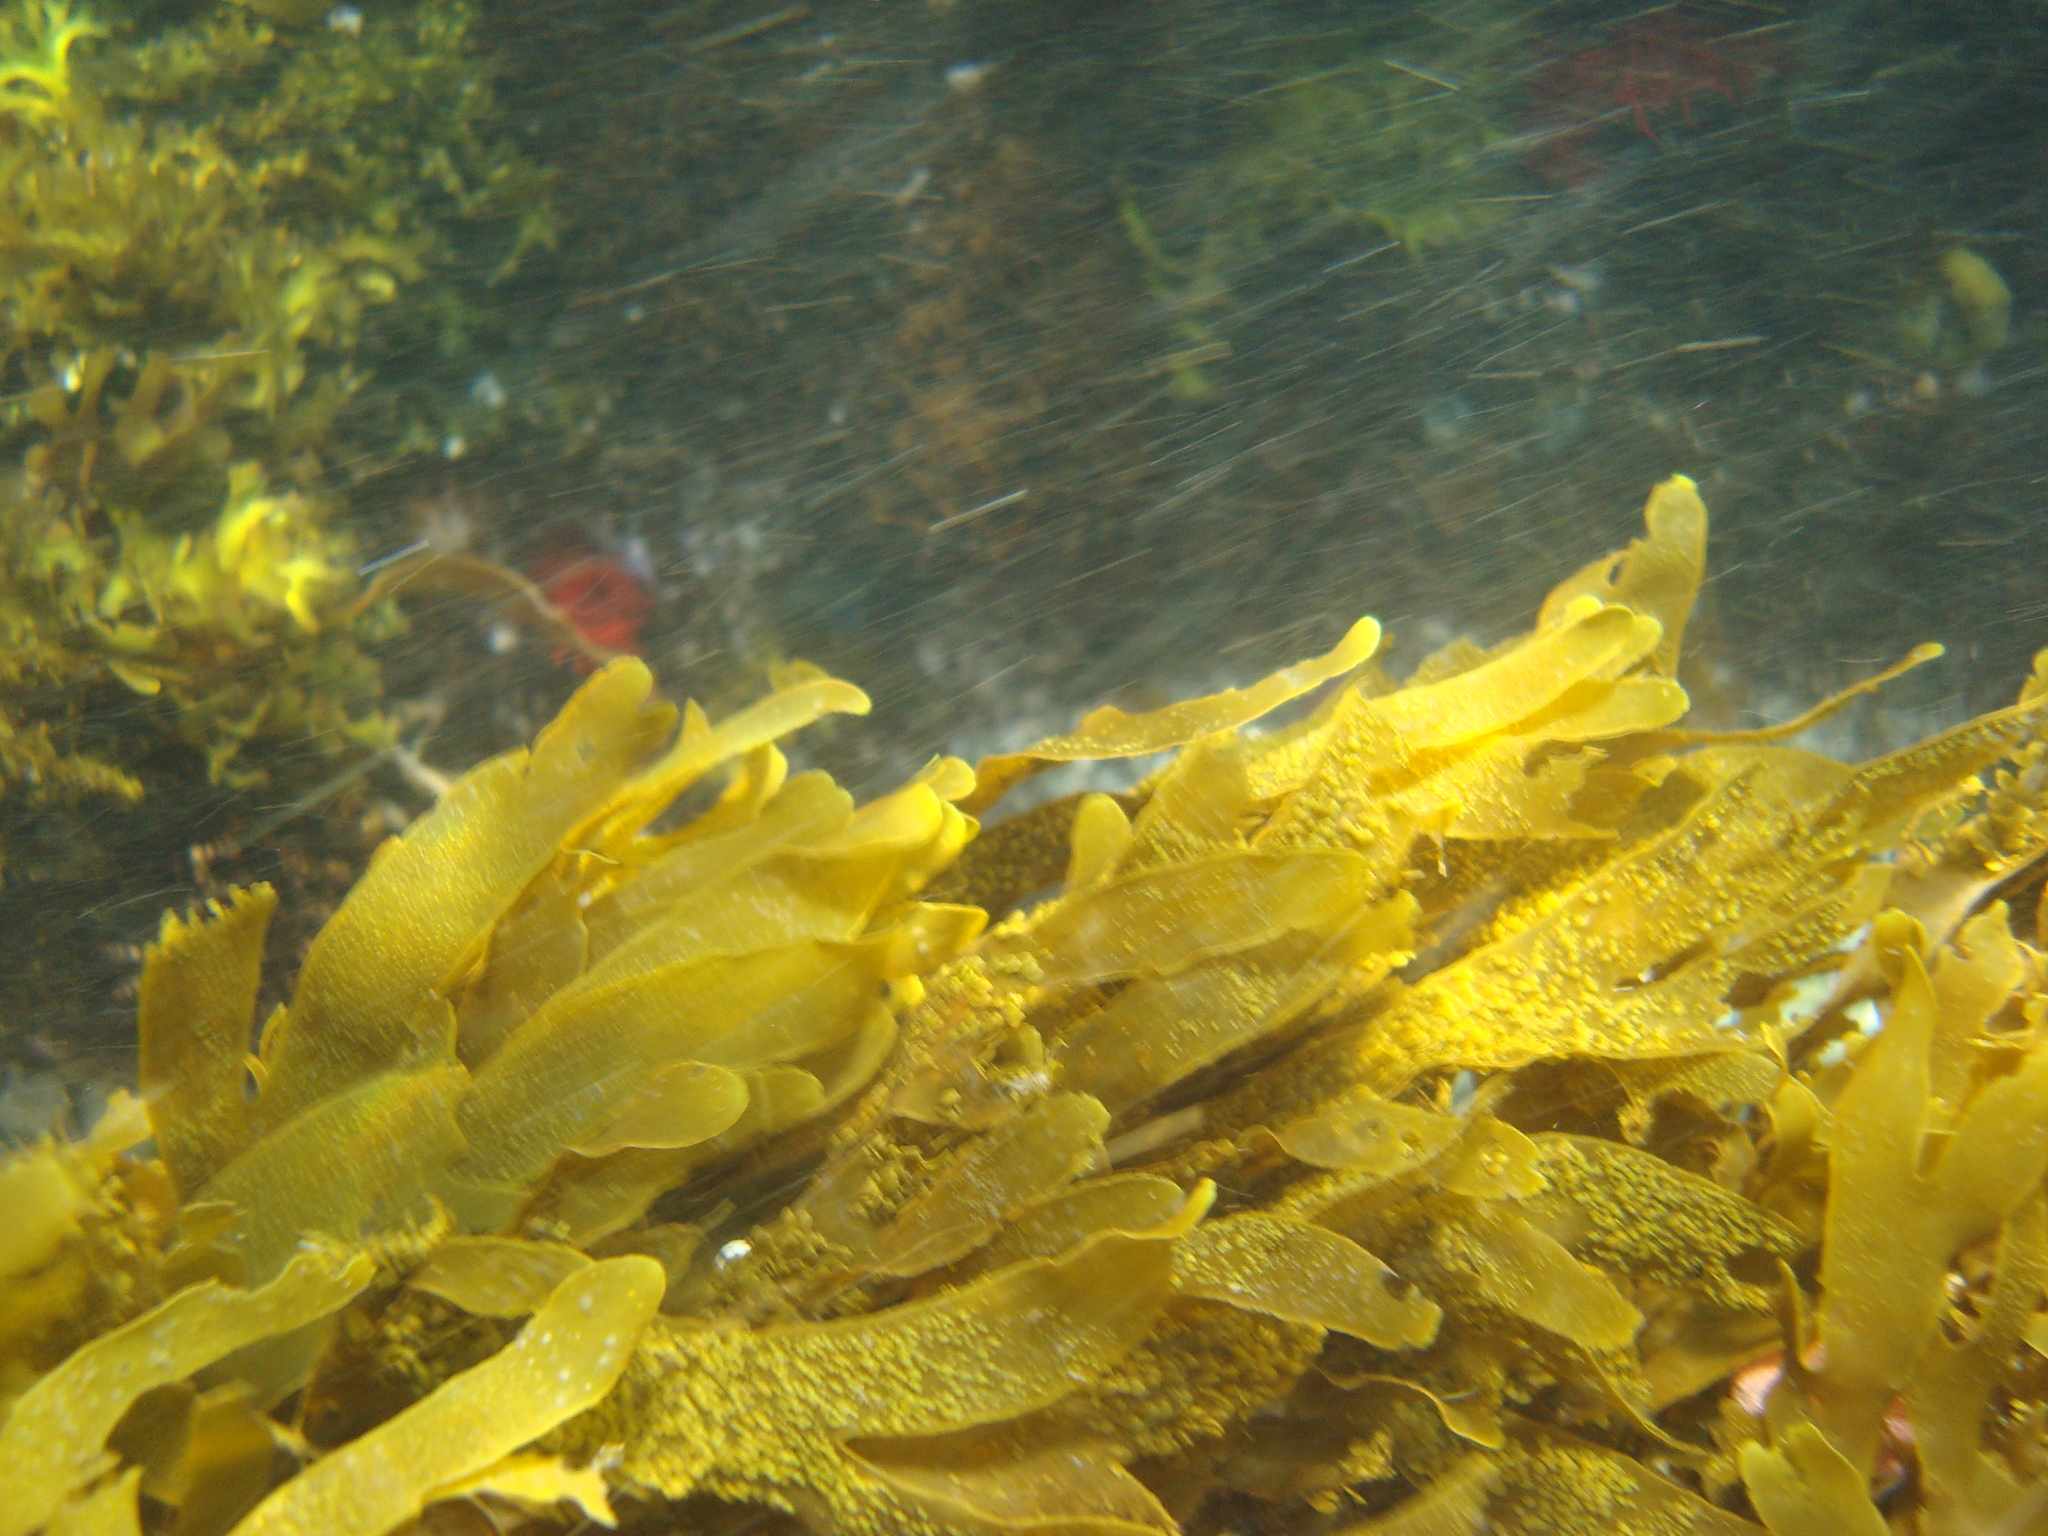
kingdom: Chromista
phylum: Ochrophyta
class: Phaeophyceae
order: Dictyotales
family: Dictyotaceae
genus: Dictyota
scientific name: Dictyota kunthii
